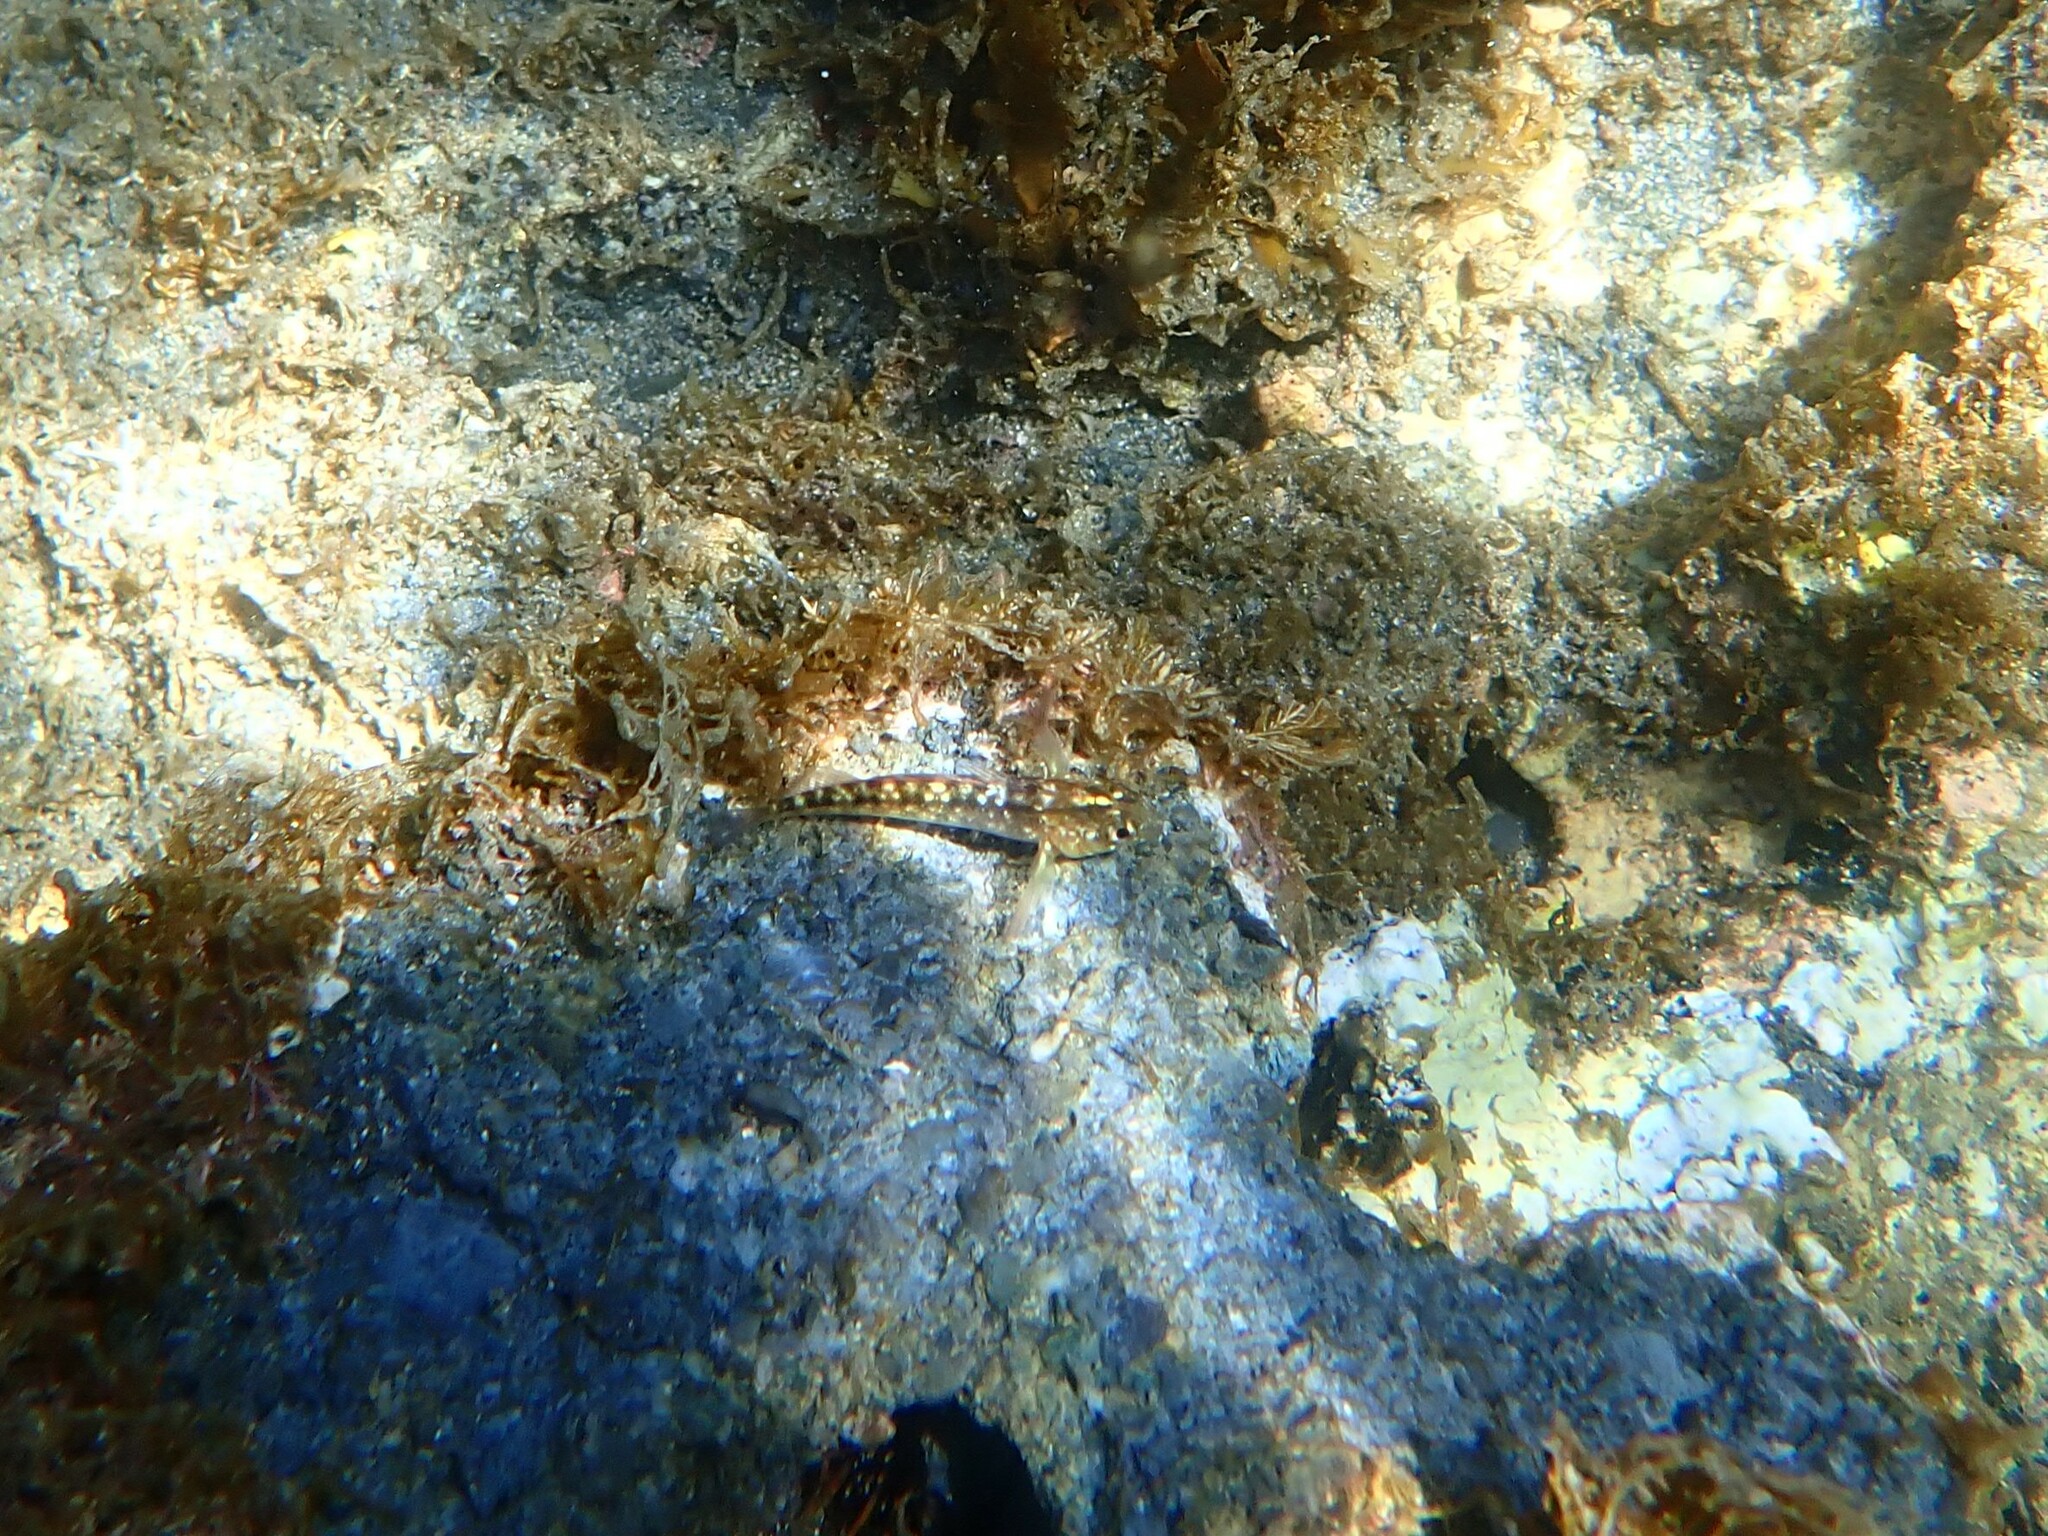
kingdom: Animalia
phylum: Chordata
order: Perciformes
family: Tripterygiidae
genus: Forsterygion
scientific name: Forsterygion lapillum
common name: Common triplefin
